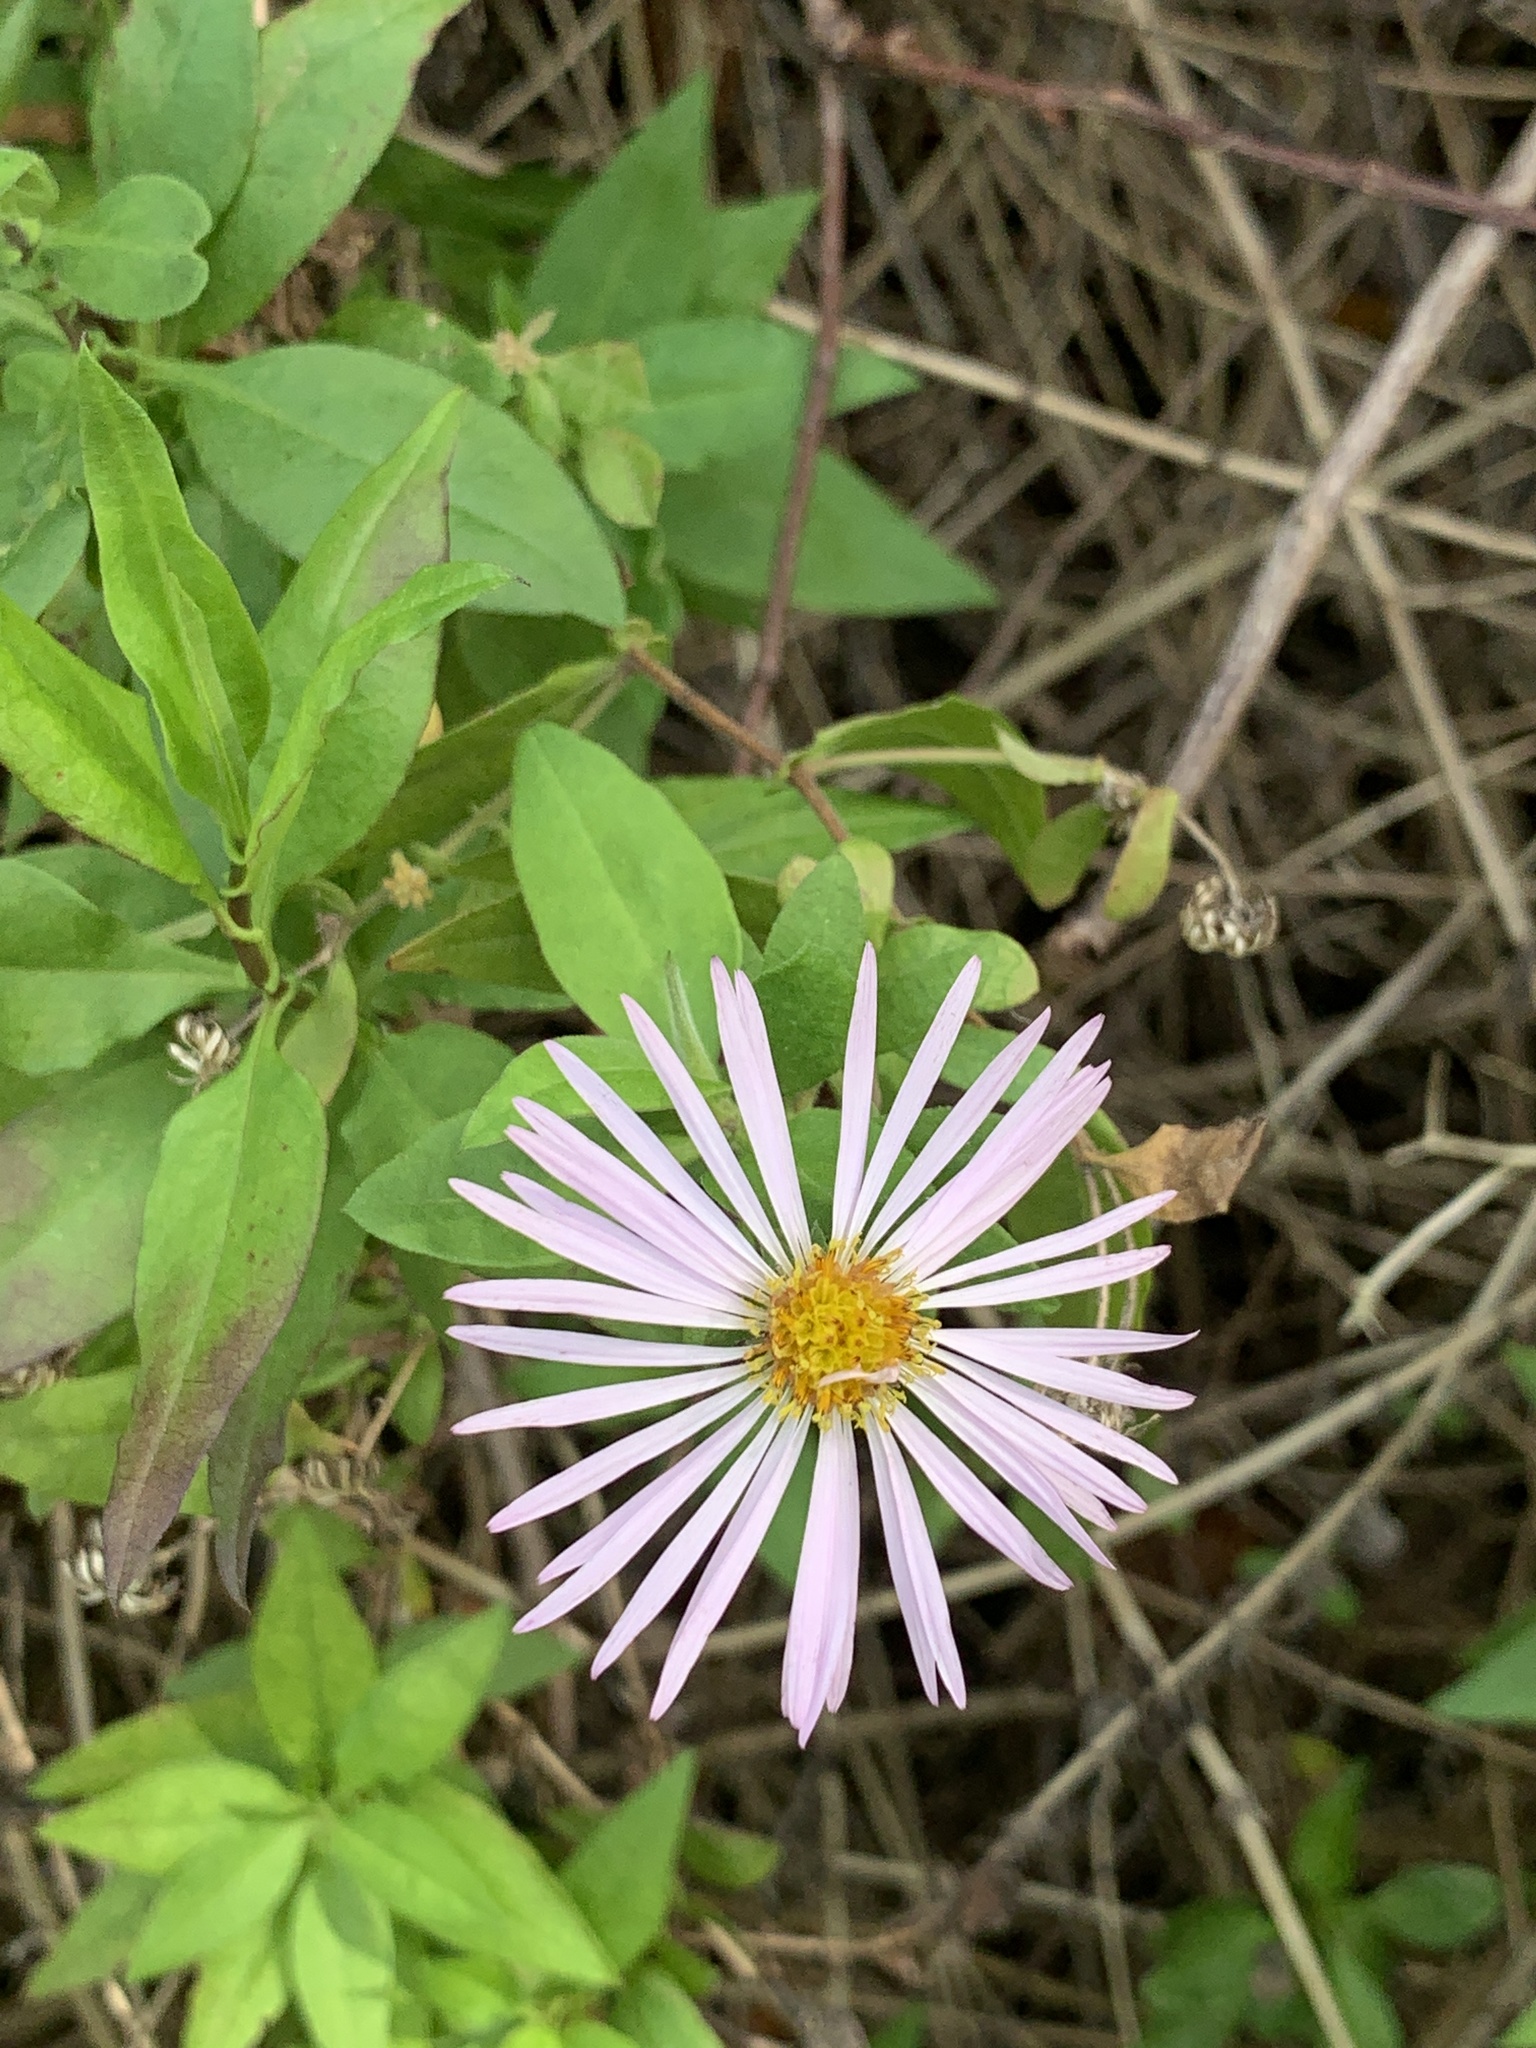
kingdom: Plantae
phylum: Tracheophyta
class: Magnoliopsida
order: Asterales
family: Asteraceae
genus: Ampelaster
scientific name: Ampelaster carolinianus
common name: Climbing aster
